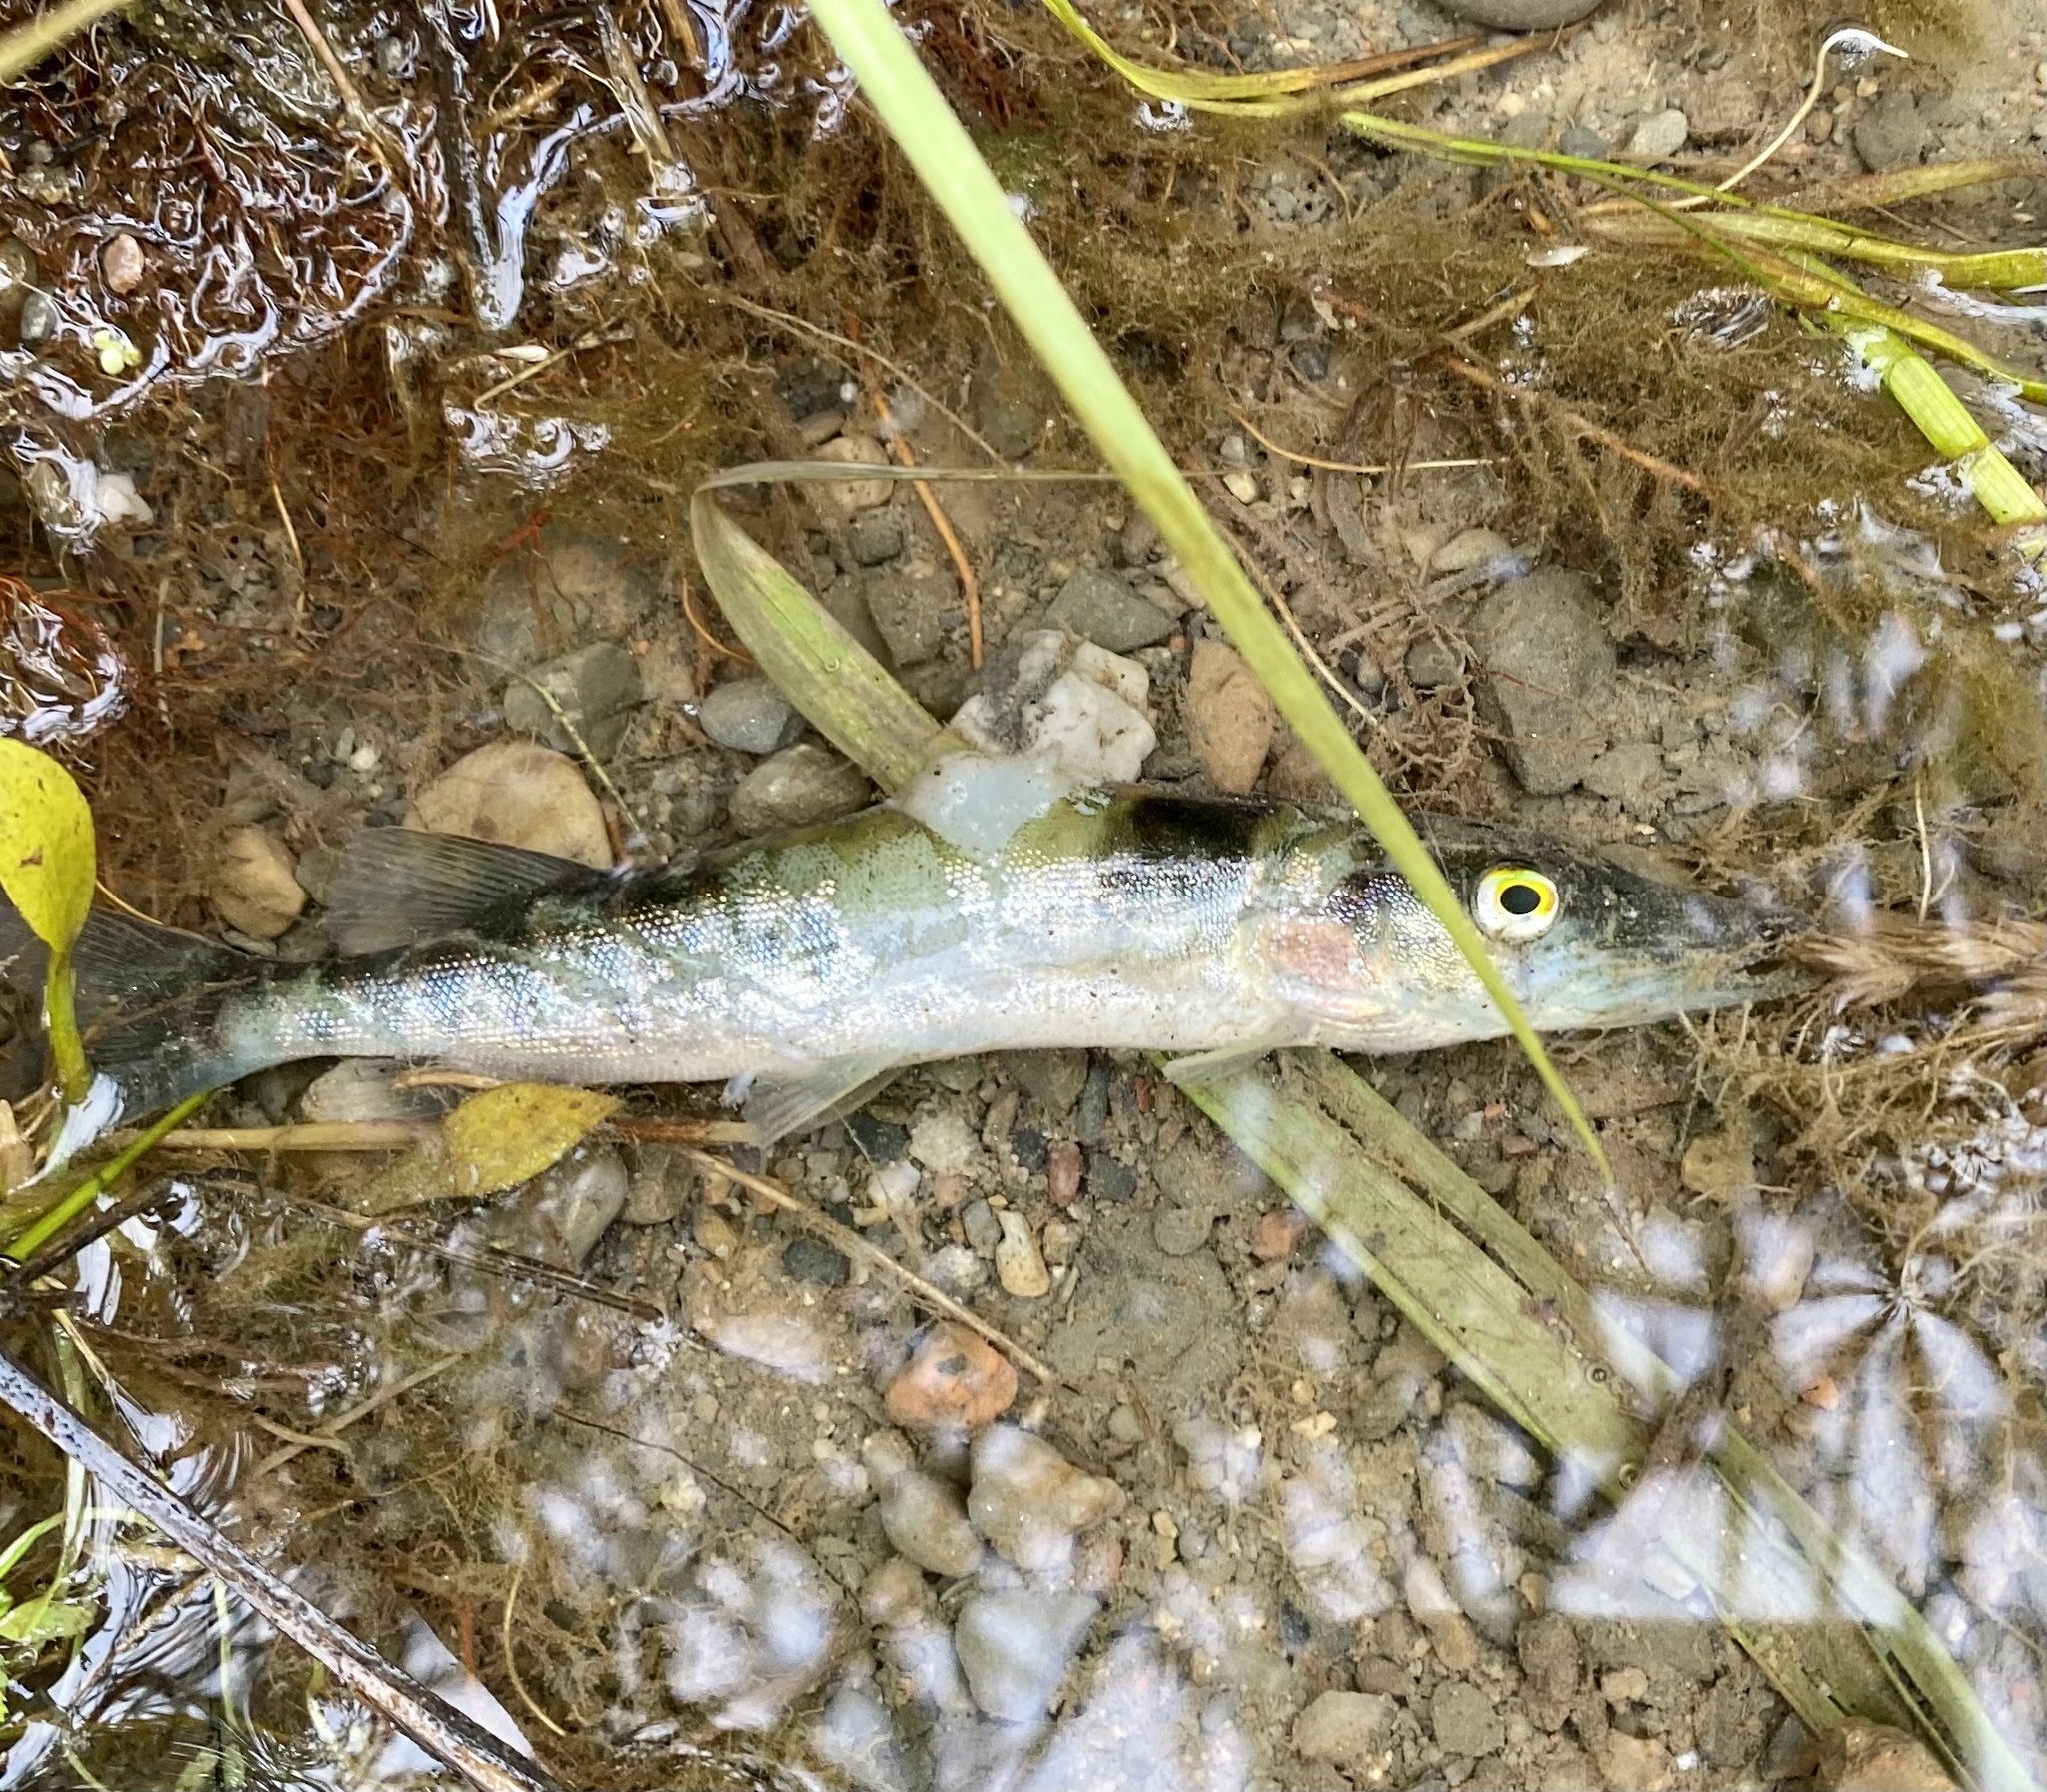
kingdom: Animalia
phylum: Chordata
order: Esociformes
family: Esocidae
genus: Esox
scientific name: Esox niger
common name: Chain pickerel
